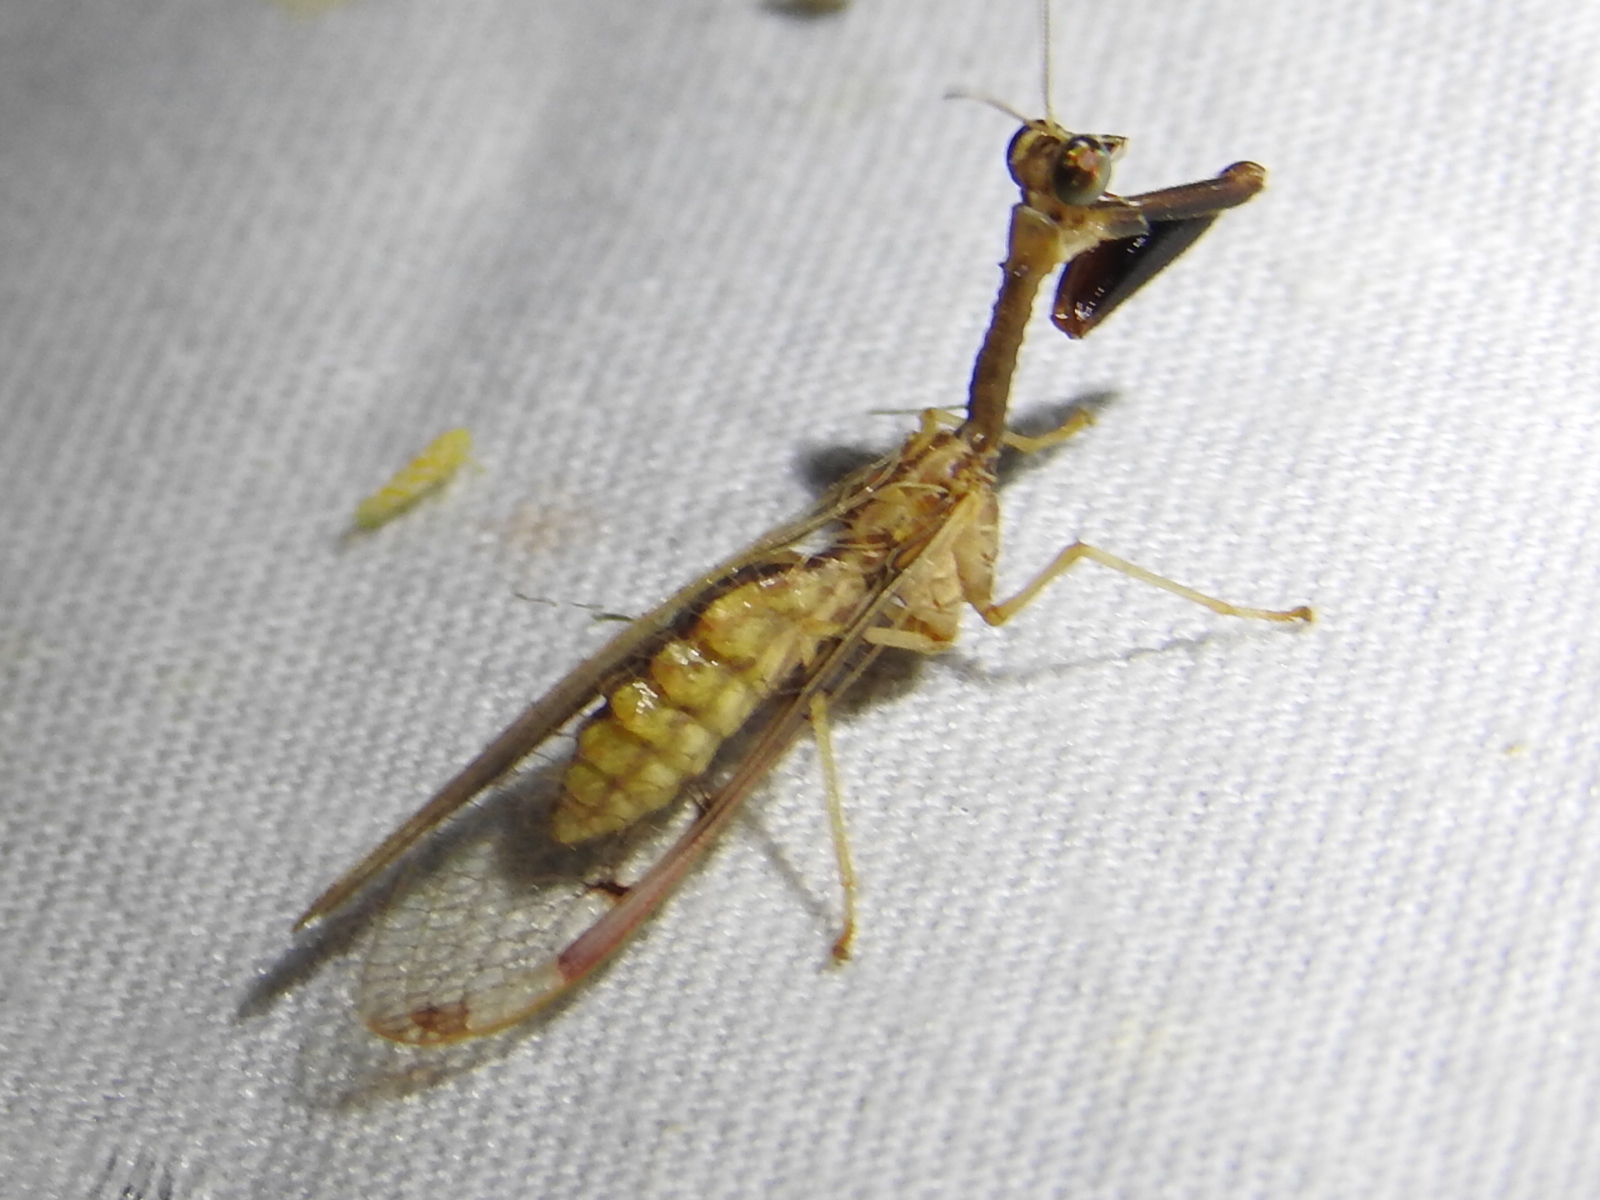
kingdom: Animalia
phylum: Arthropoda
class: Insecta
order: Neuroptera
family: Mantispidae
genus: Dicromantispa
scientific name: Dicromantispa interrupta
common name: Four-spotted mantidfly
